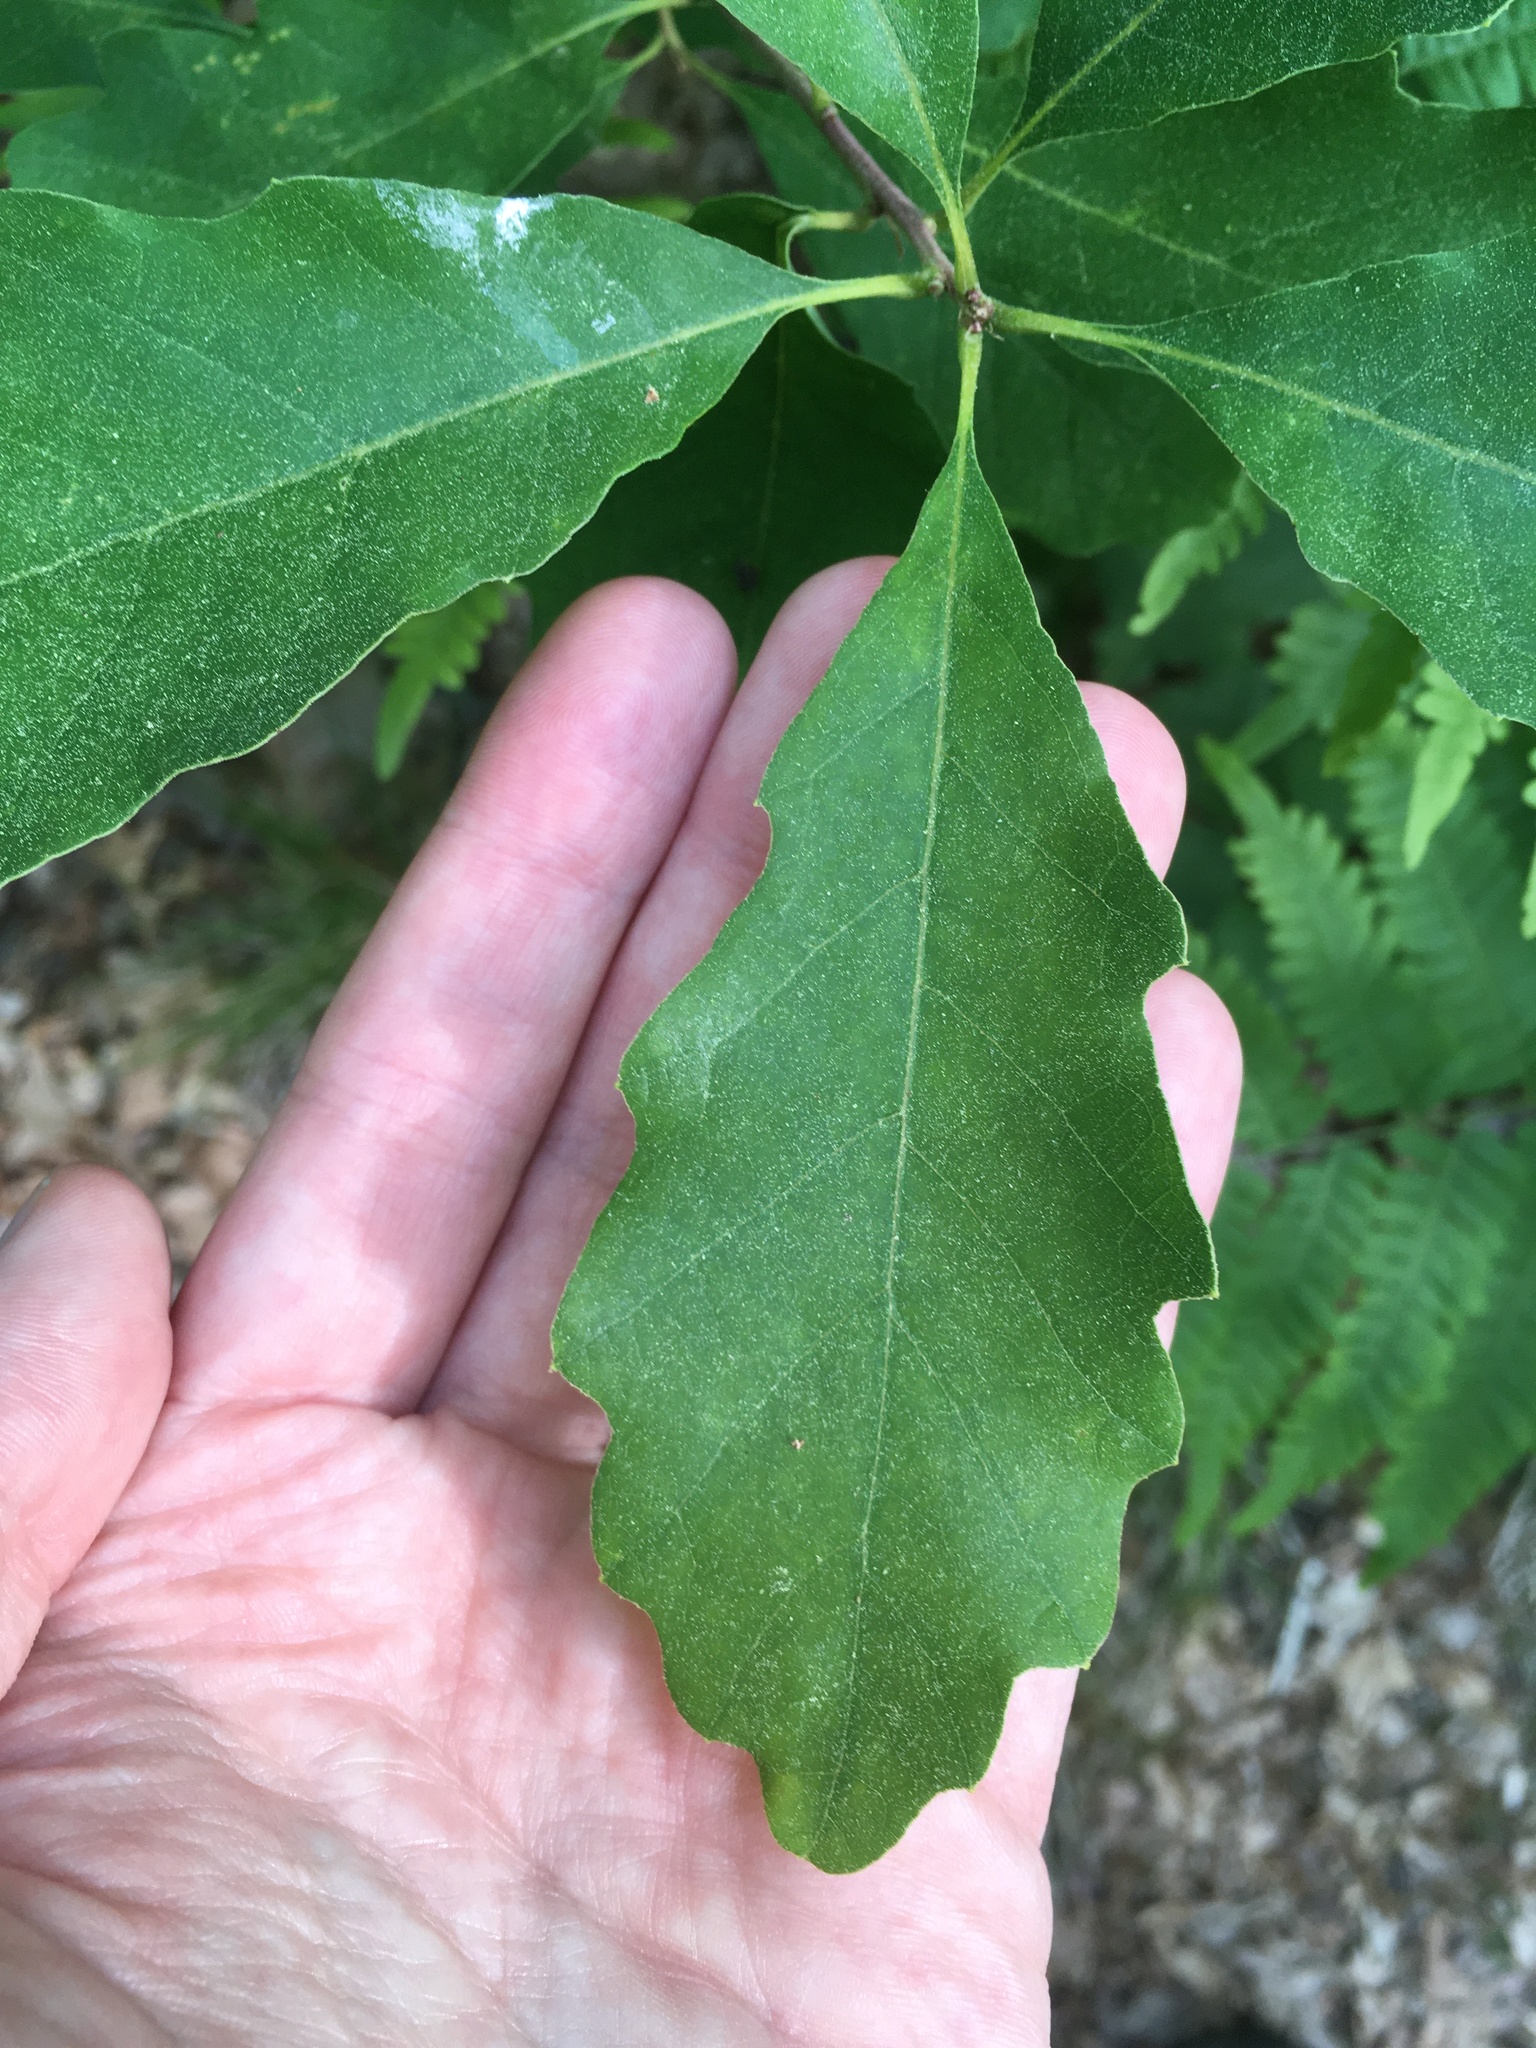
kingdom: Plantae
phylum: Tracheophyta
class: Magnoliopsida
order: Fagales
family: Fagaceae
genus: Quercus
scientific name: Quercus prinoides
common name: Dwarf chinkapin oak
